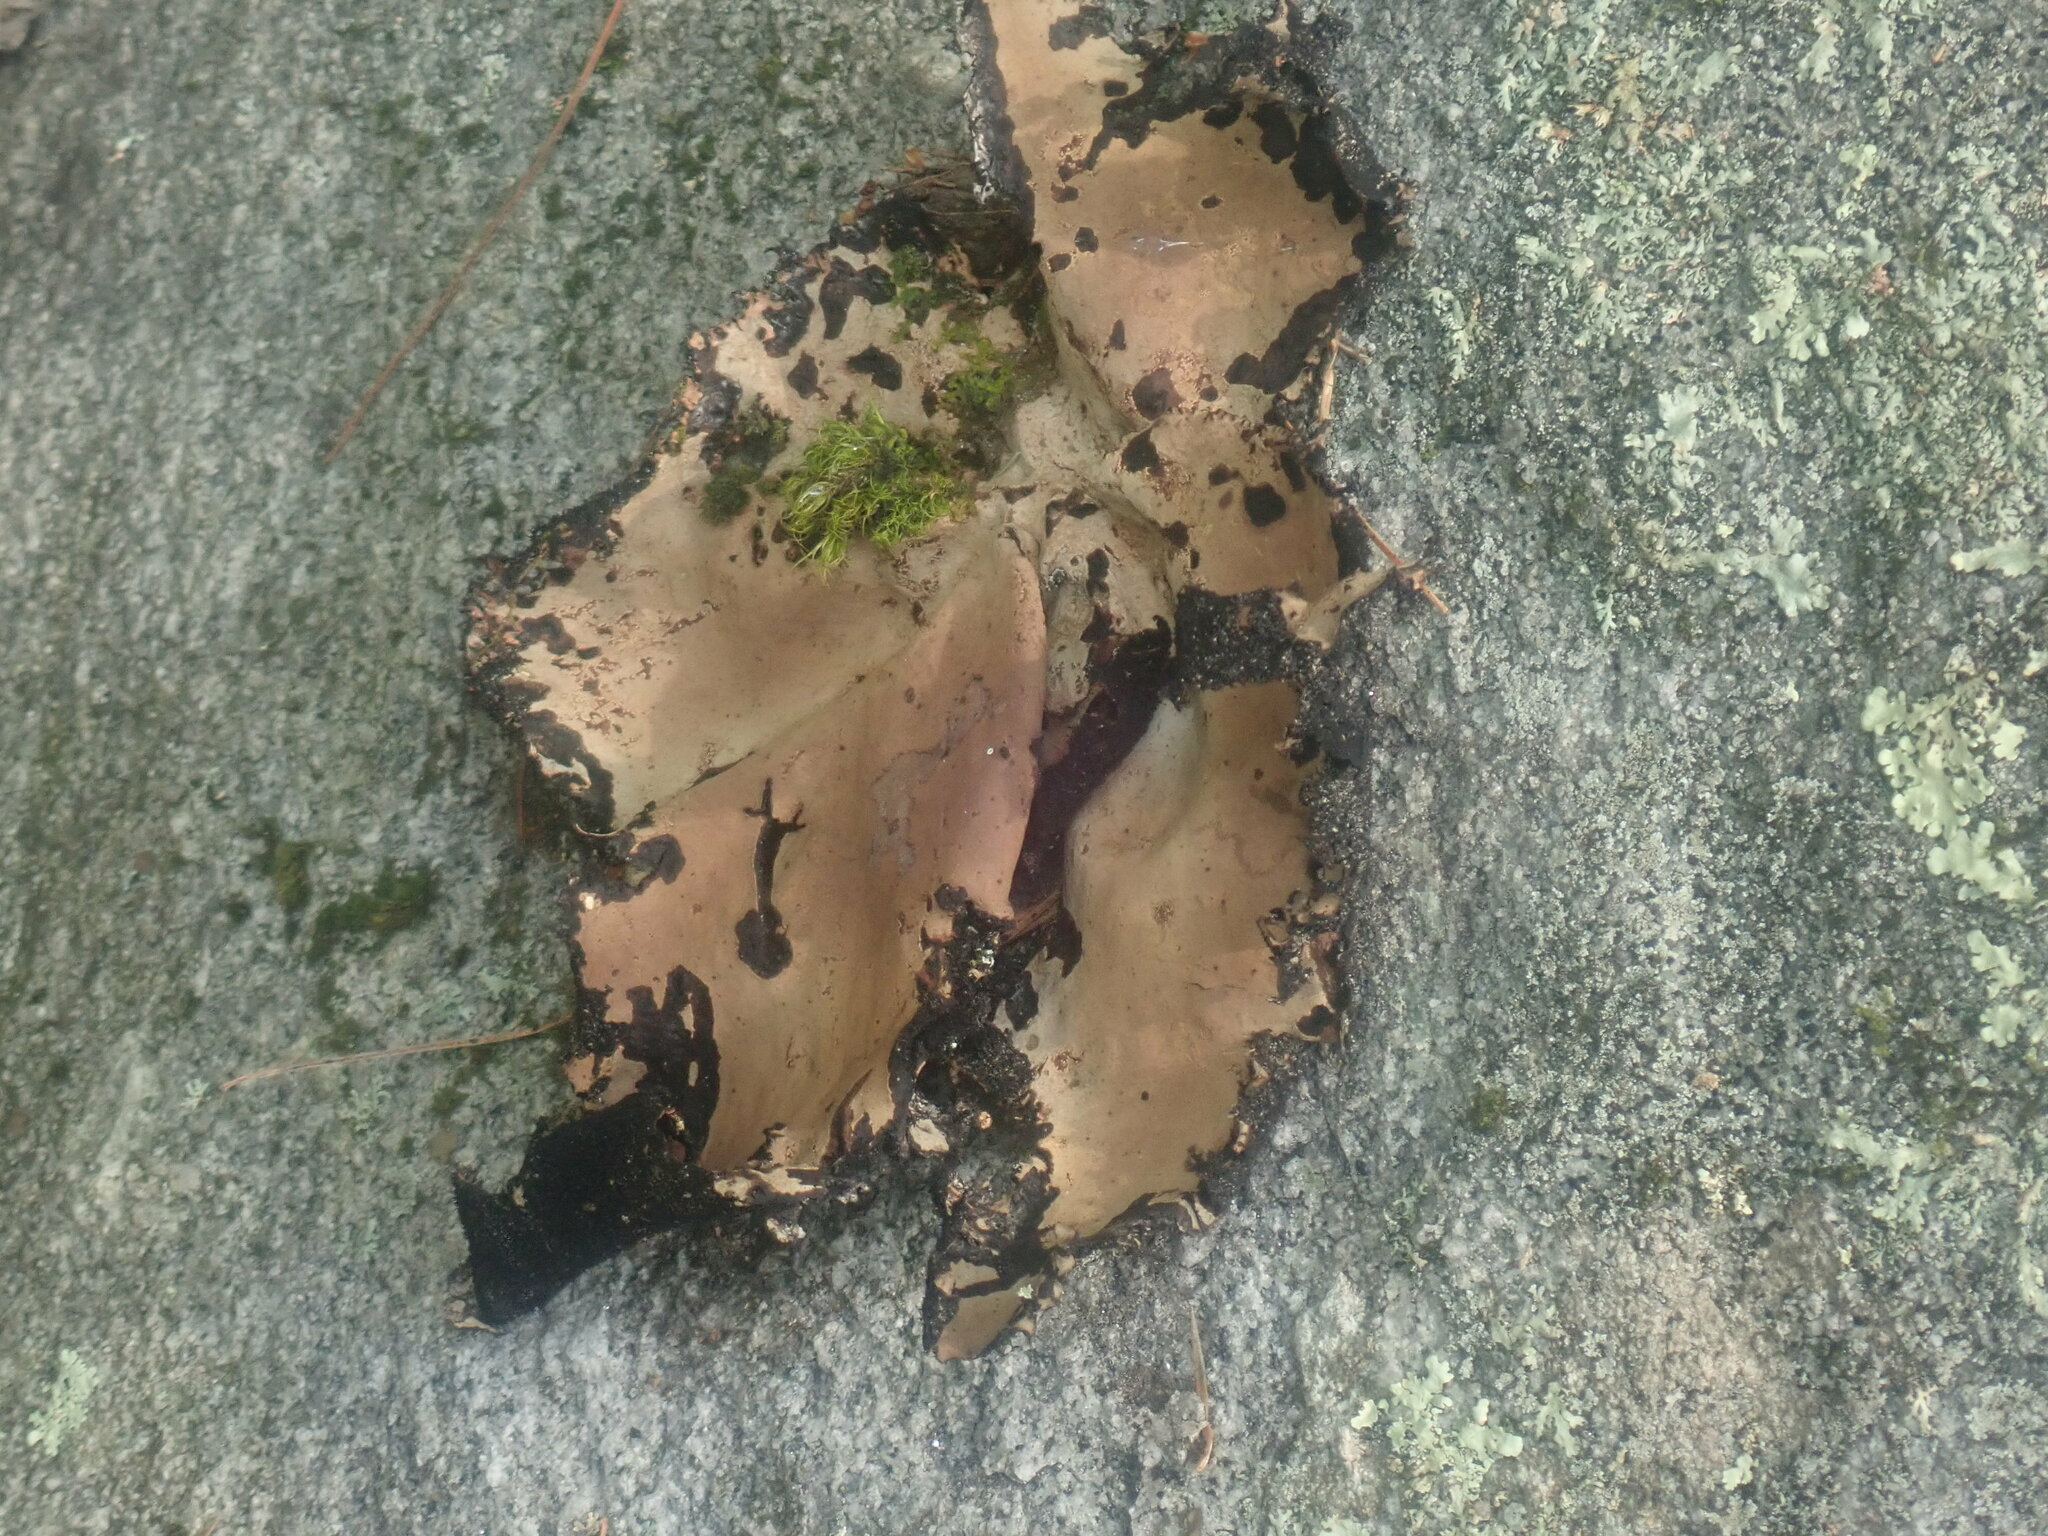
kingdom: Fungi
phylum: Ascomycota
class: Lecanoromycetes
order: Umbilicariales
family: Umbilicariaceae
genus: Umbilicaria
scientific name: Umbilicaria mammulata
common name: Smooth rock tripe
